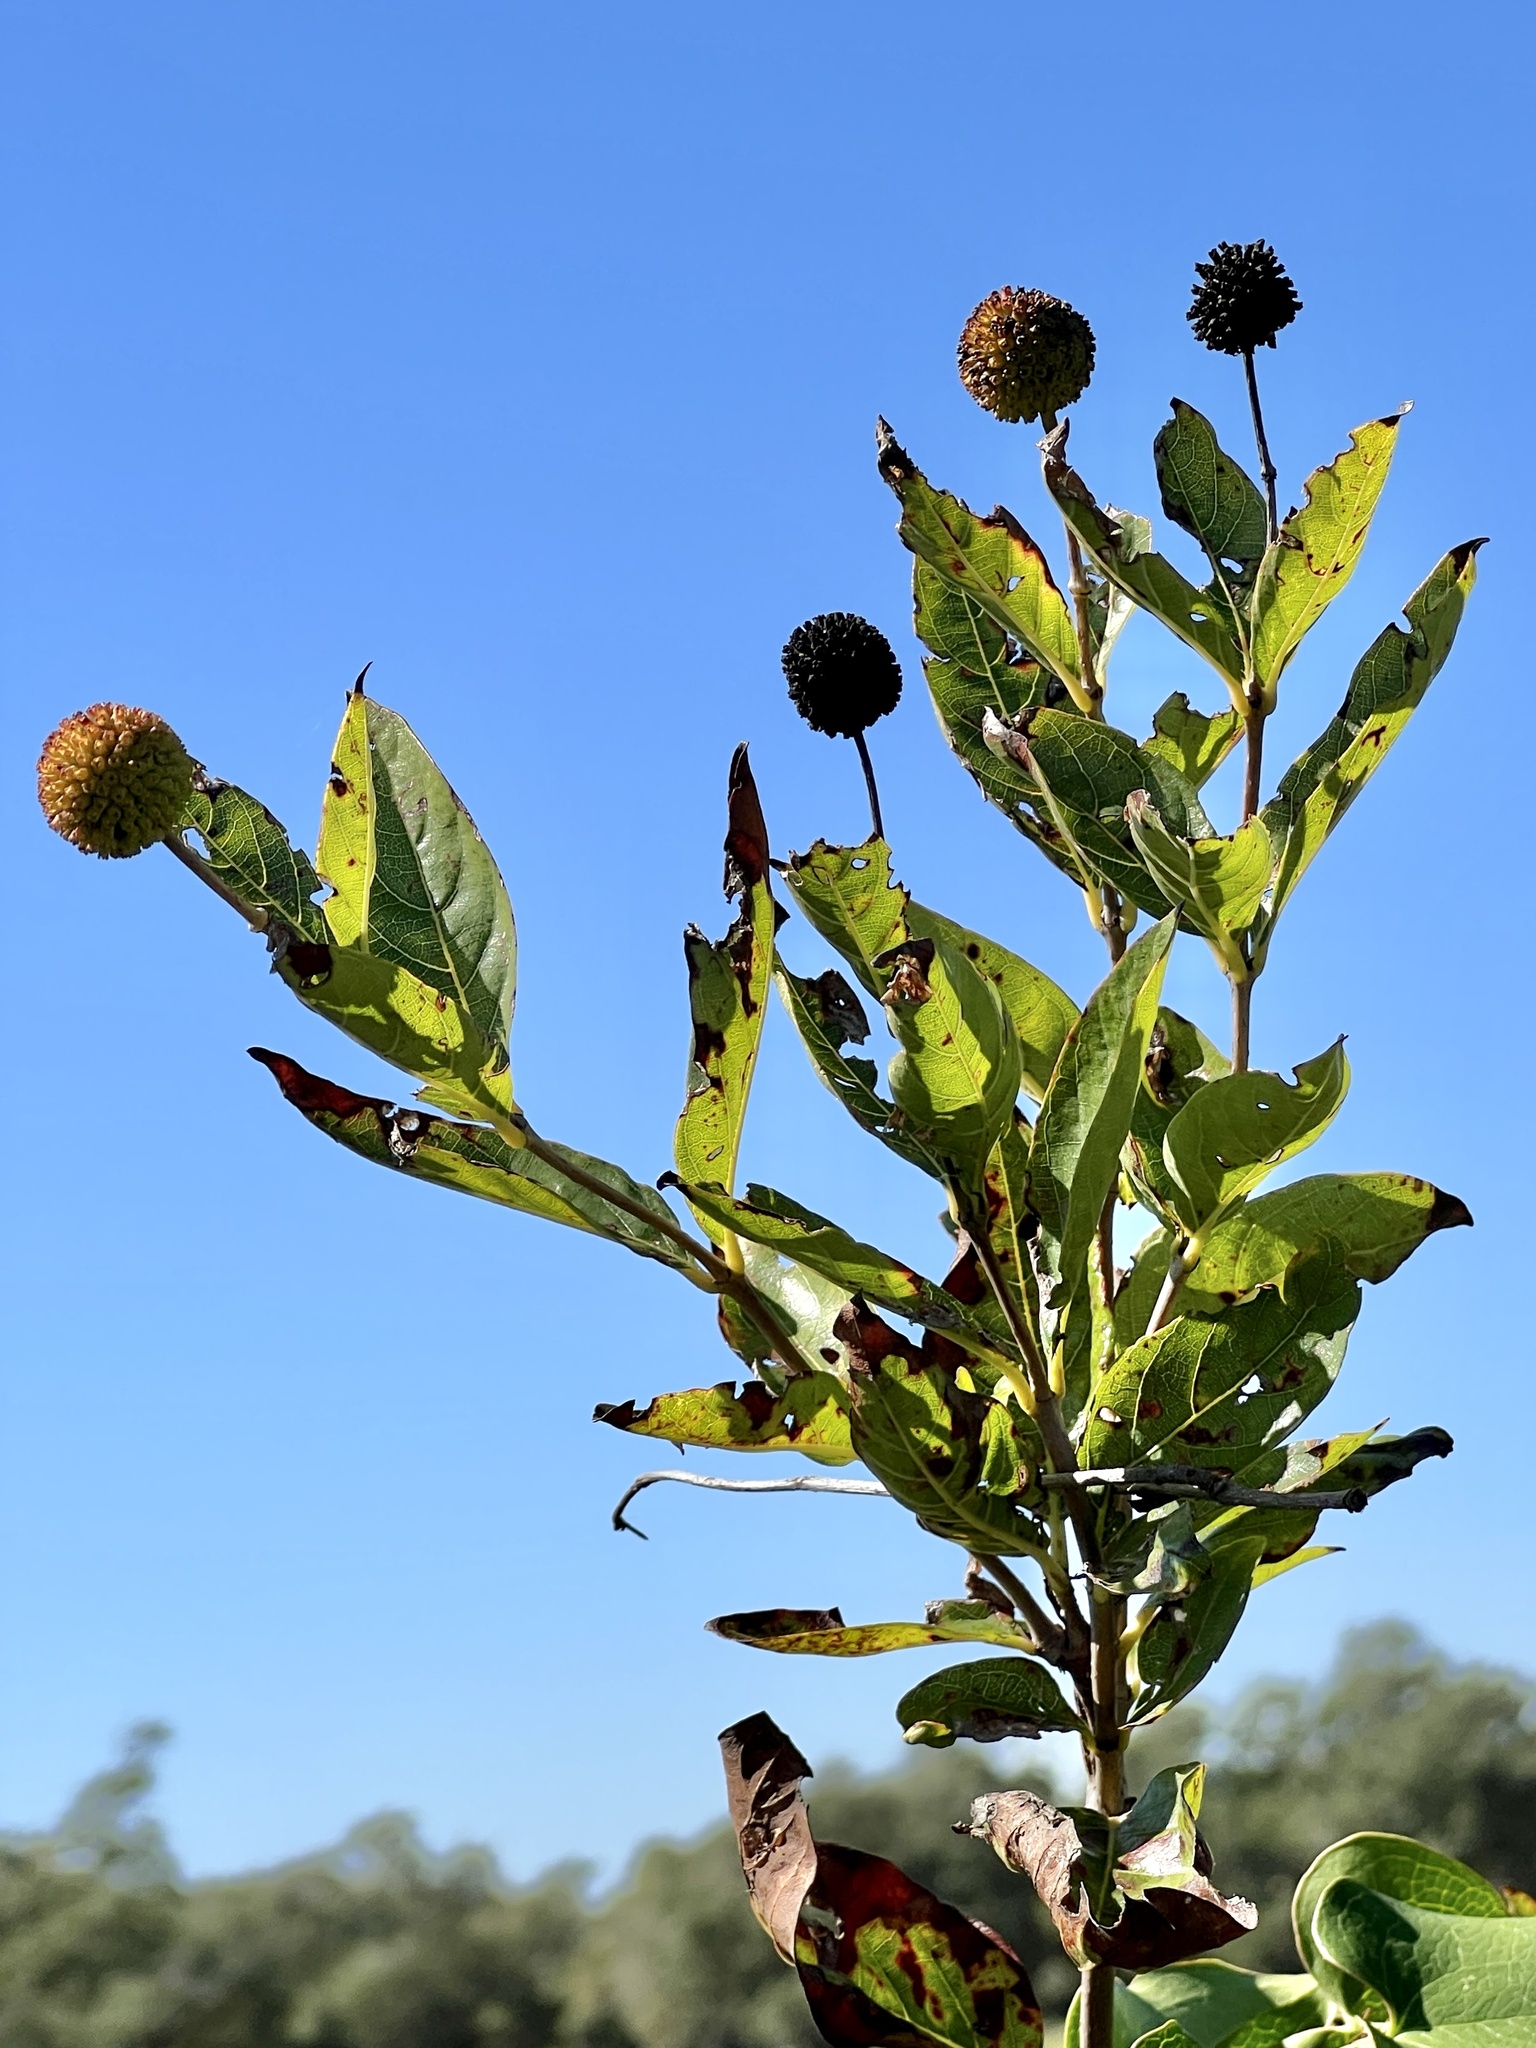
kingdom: Plantae
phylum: Tracheophyta
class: Magnoliopsida
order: Gentianales
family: Rubiaceae
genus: Cephalanthus
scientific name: Cephalanthus occidentalis
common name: Button-willow
